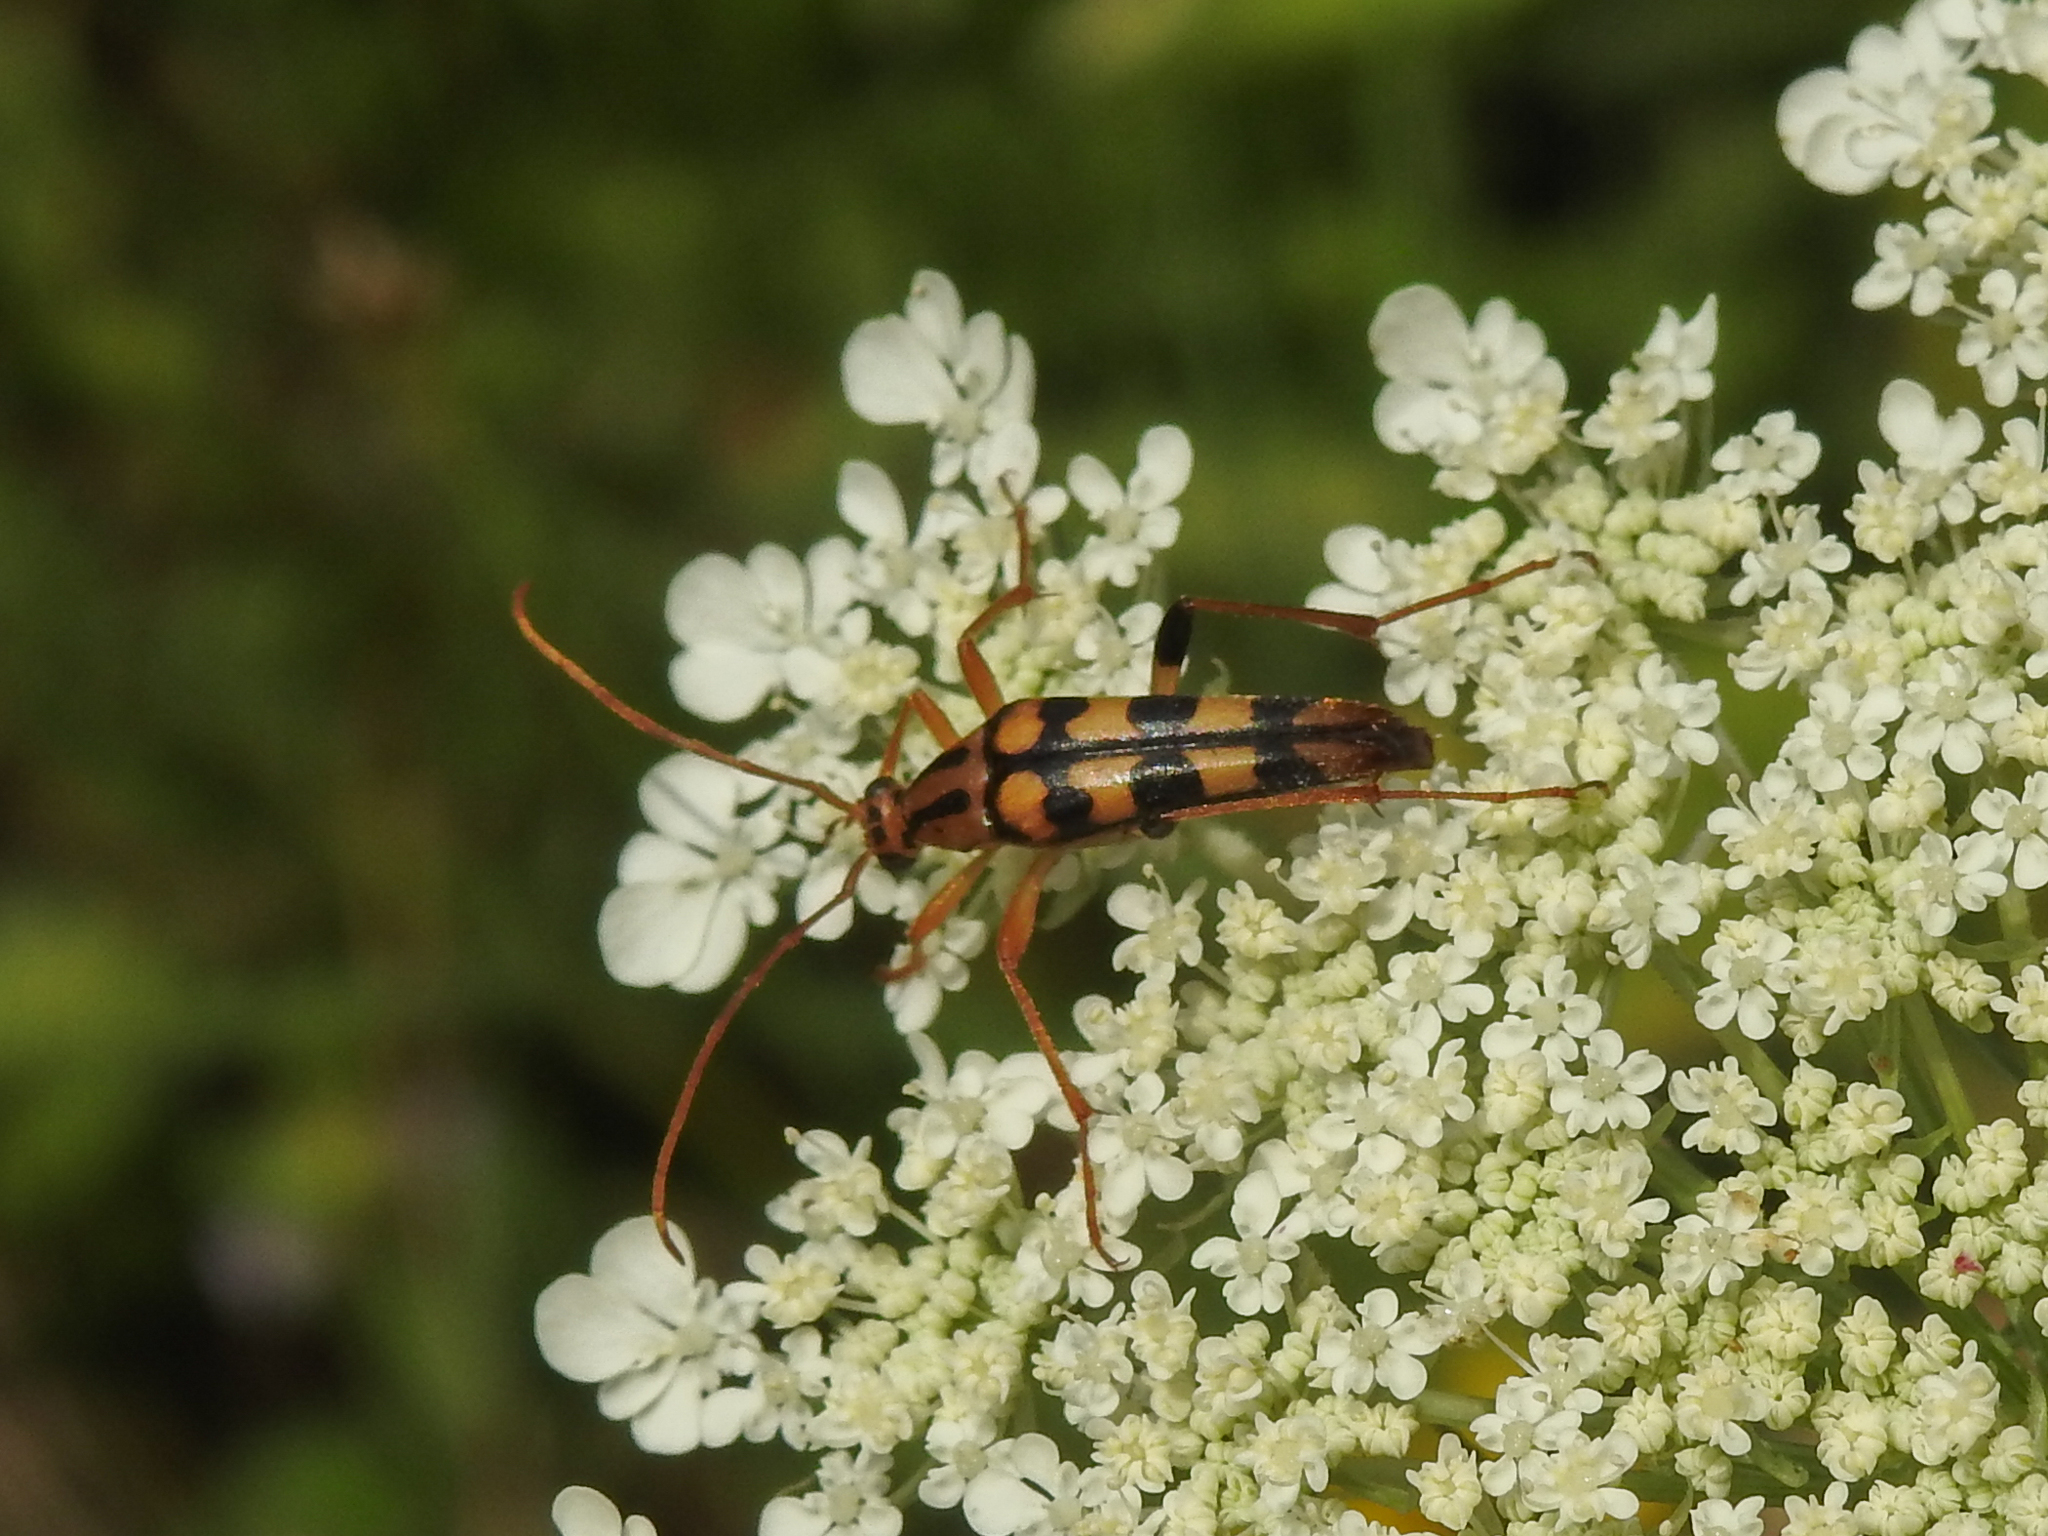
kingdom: Animalia
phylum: Arthropoda
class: Insecta
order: Coleoptera
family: Cerambycidae
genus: Strangalia
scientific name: Strangalia luteicornis
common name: Yellow-horned flower longhorn beetle
